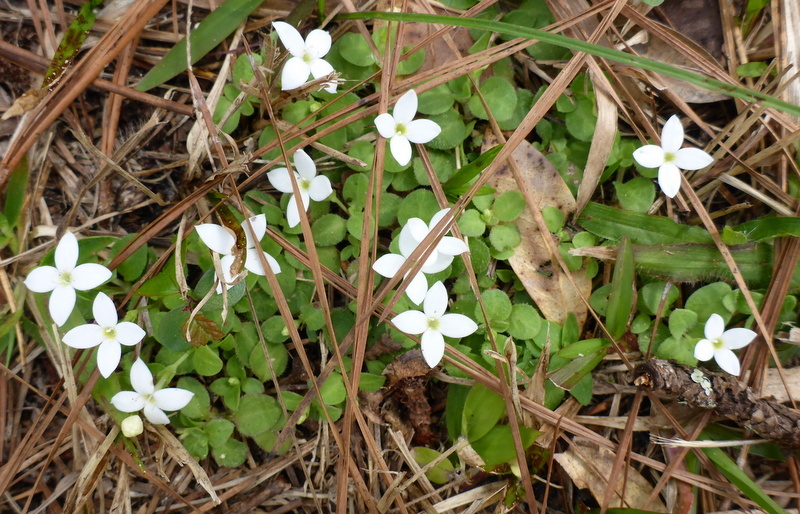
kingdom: Plantae
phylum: Tracheophyta
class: Magnoliopsida
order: Gentianales
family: Rubiaceae
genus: Houstonia
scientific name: Houstonia procumbens
